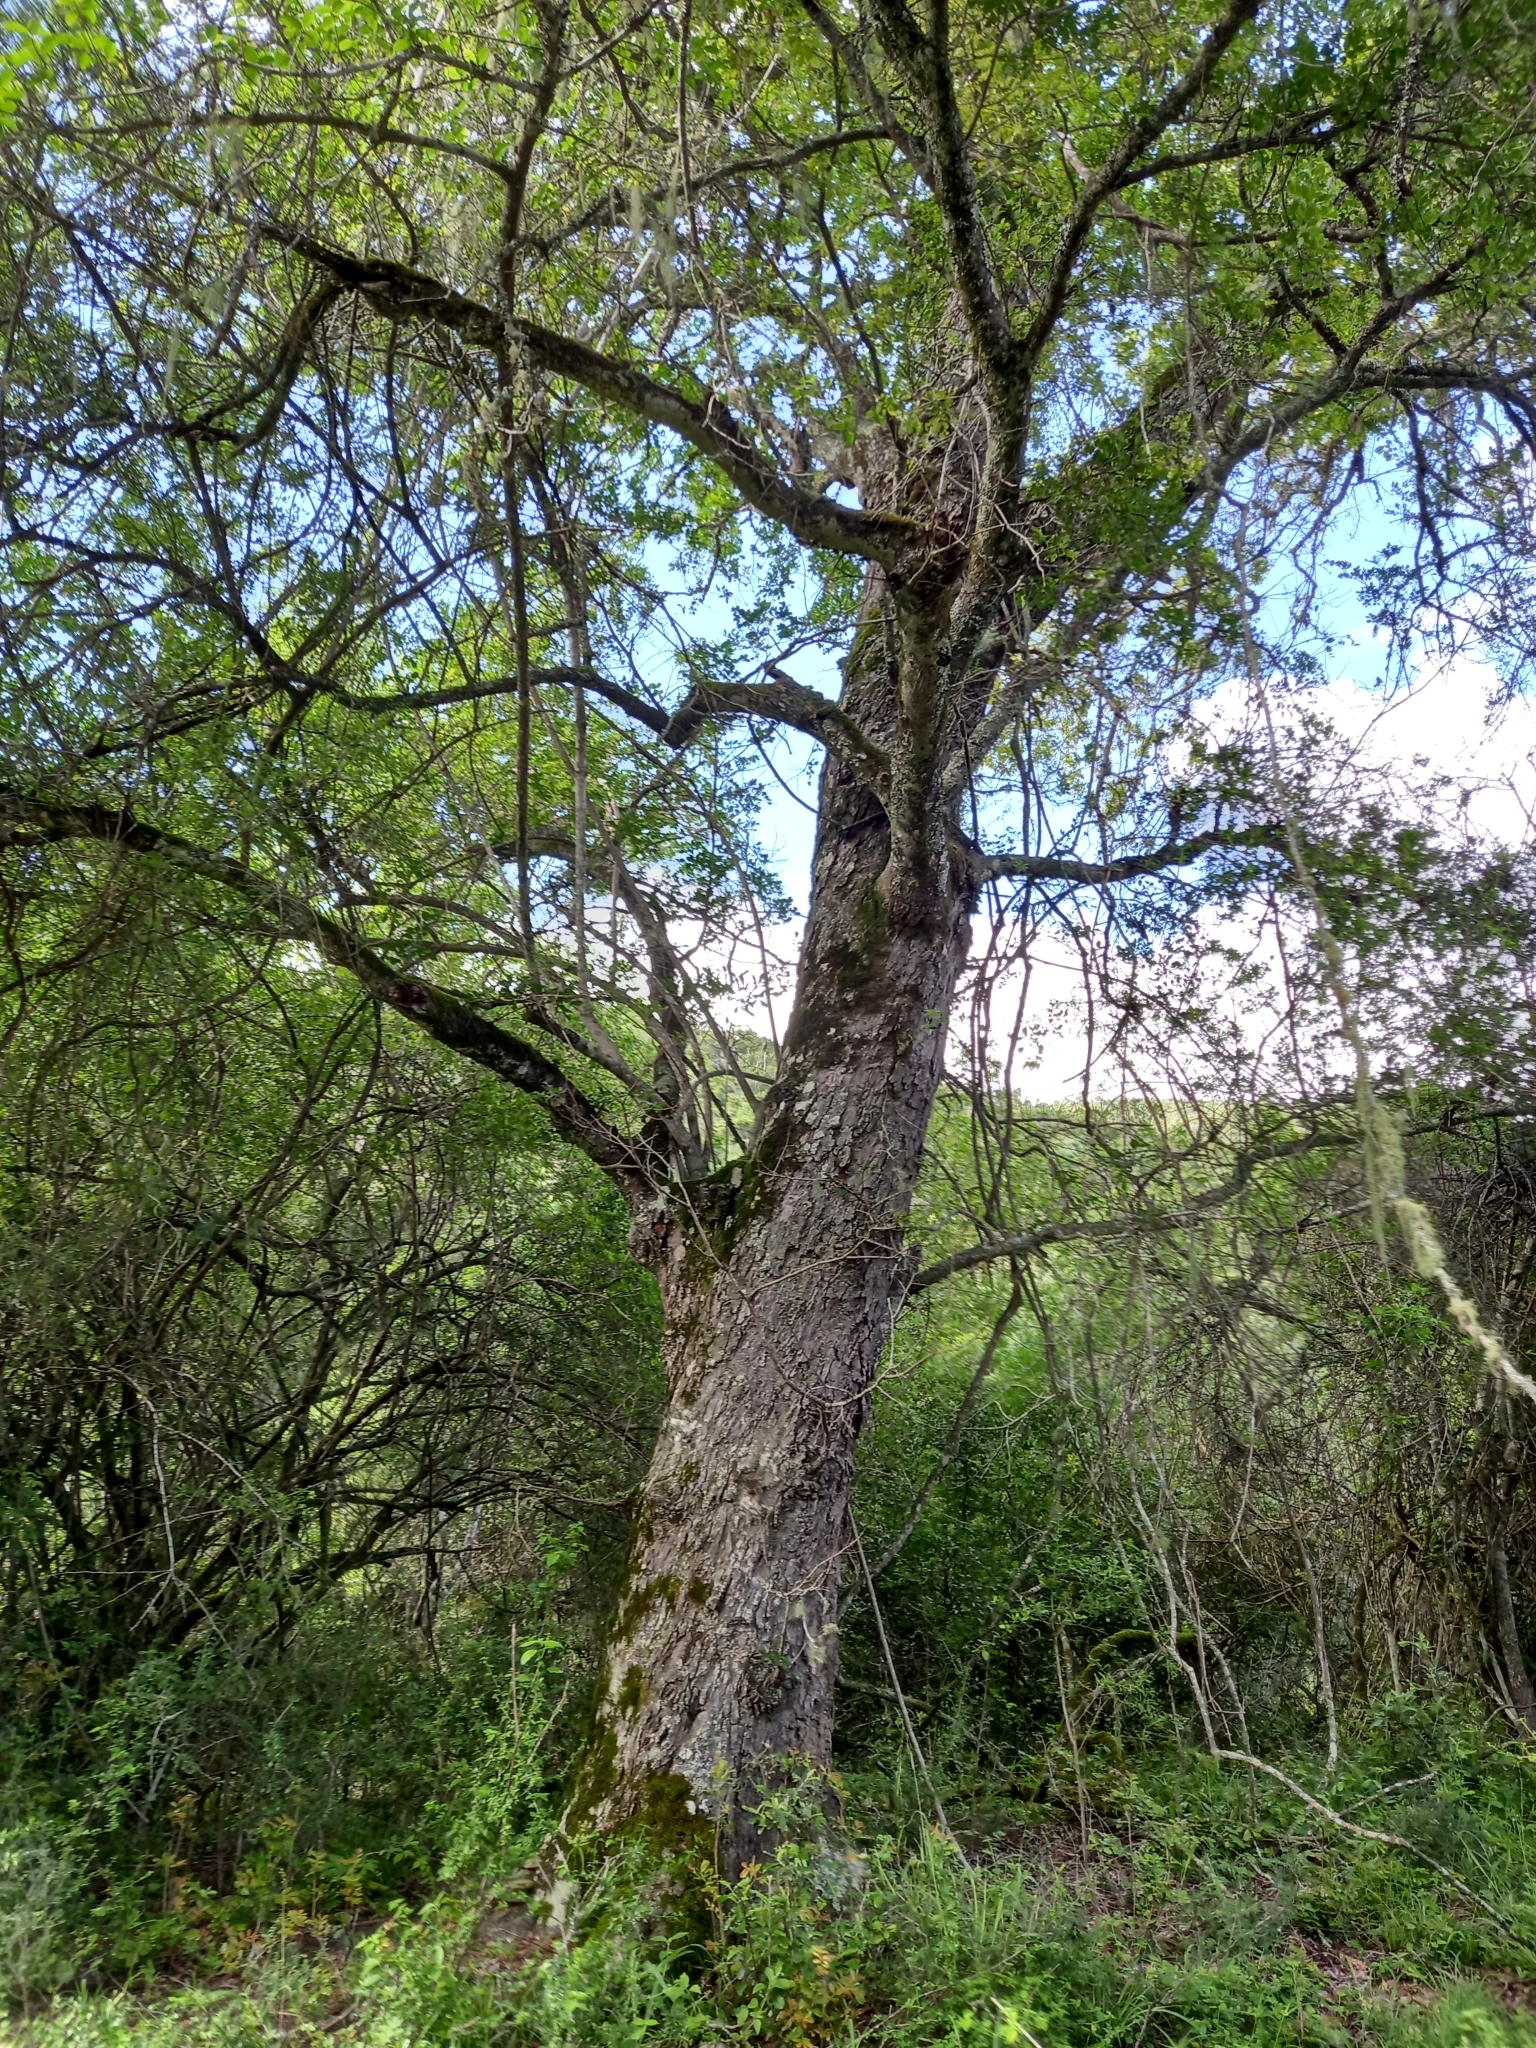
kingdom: Plantae
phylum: Tracheophyta
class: Magnoliopsida
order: Fabales
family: Fabaceae
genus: Schotia
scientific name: Schotia latifolia
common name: Bush boer-bean
